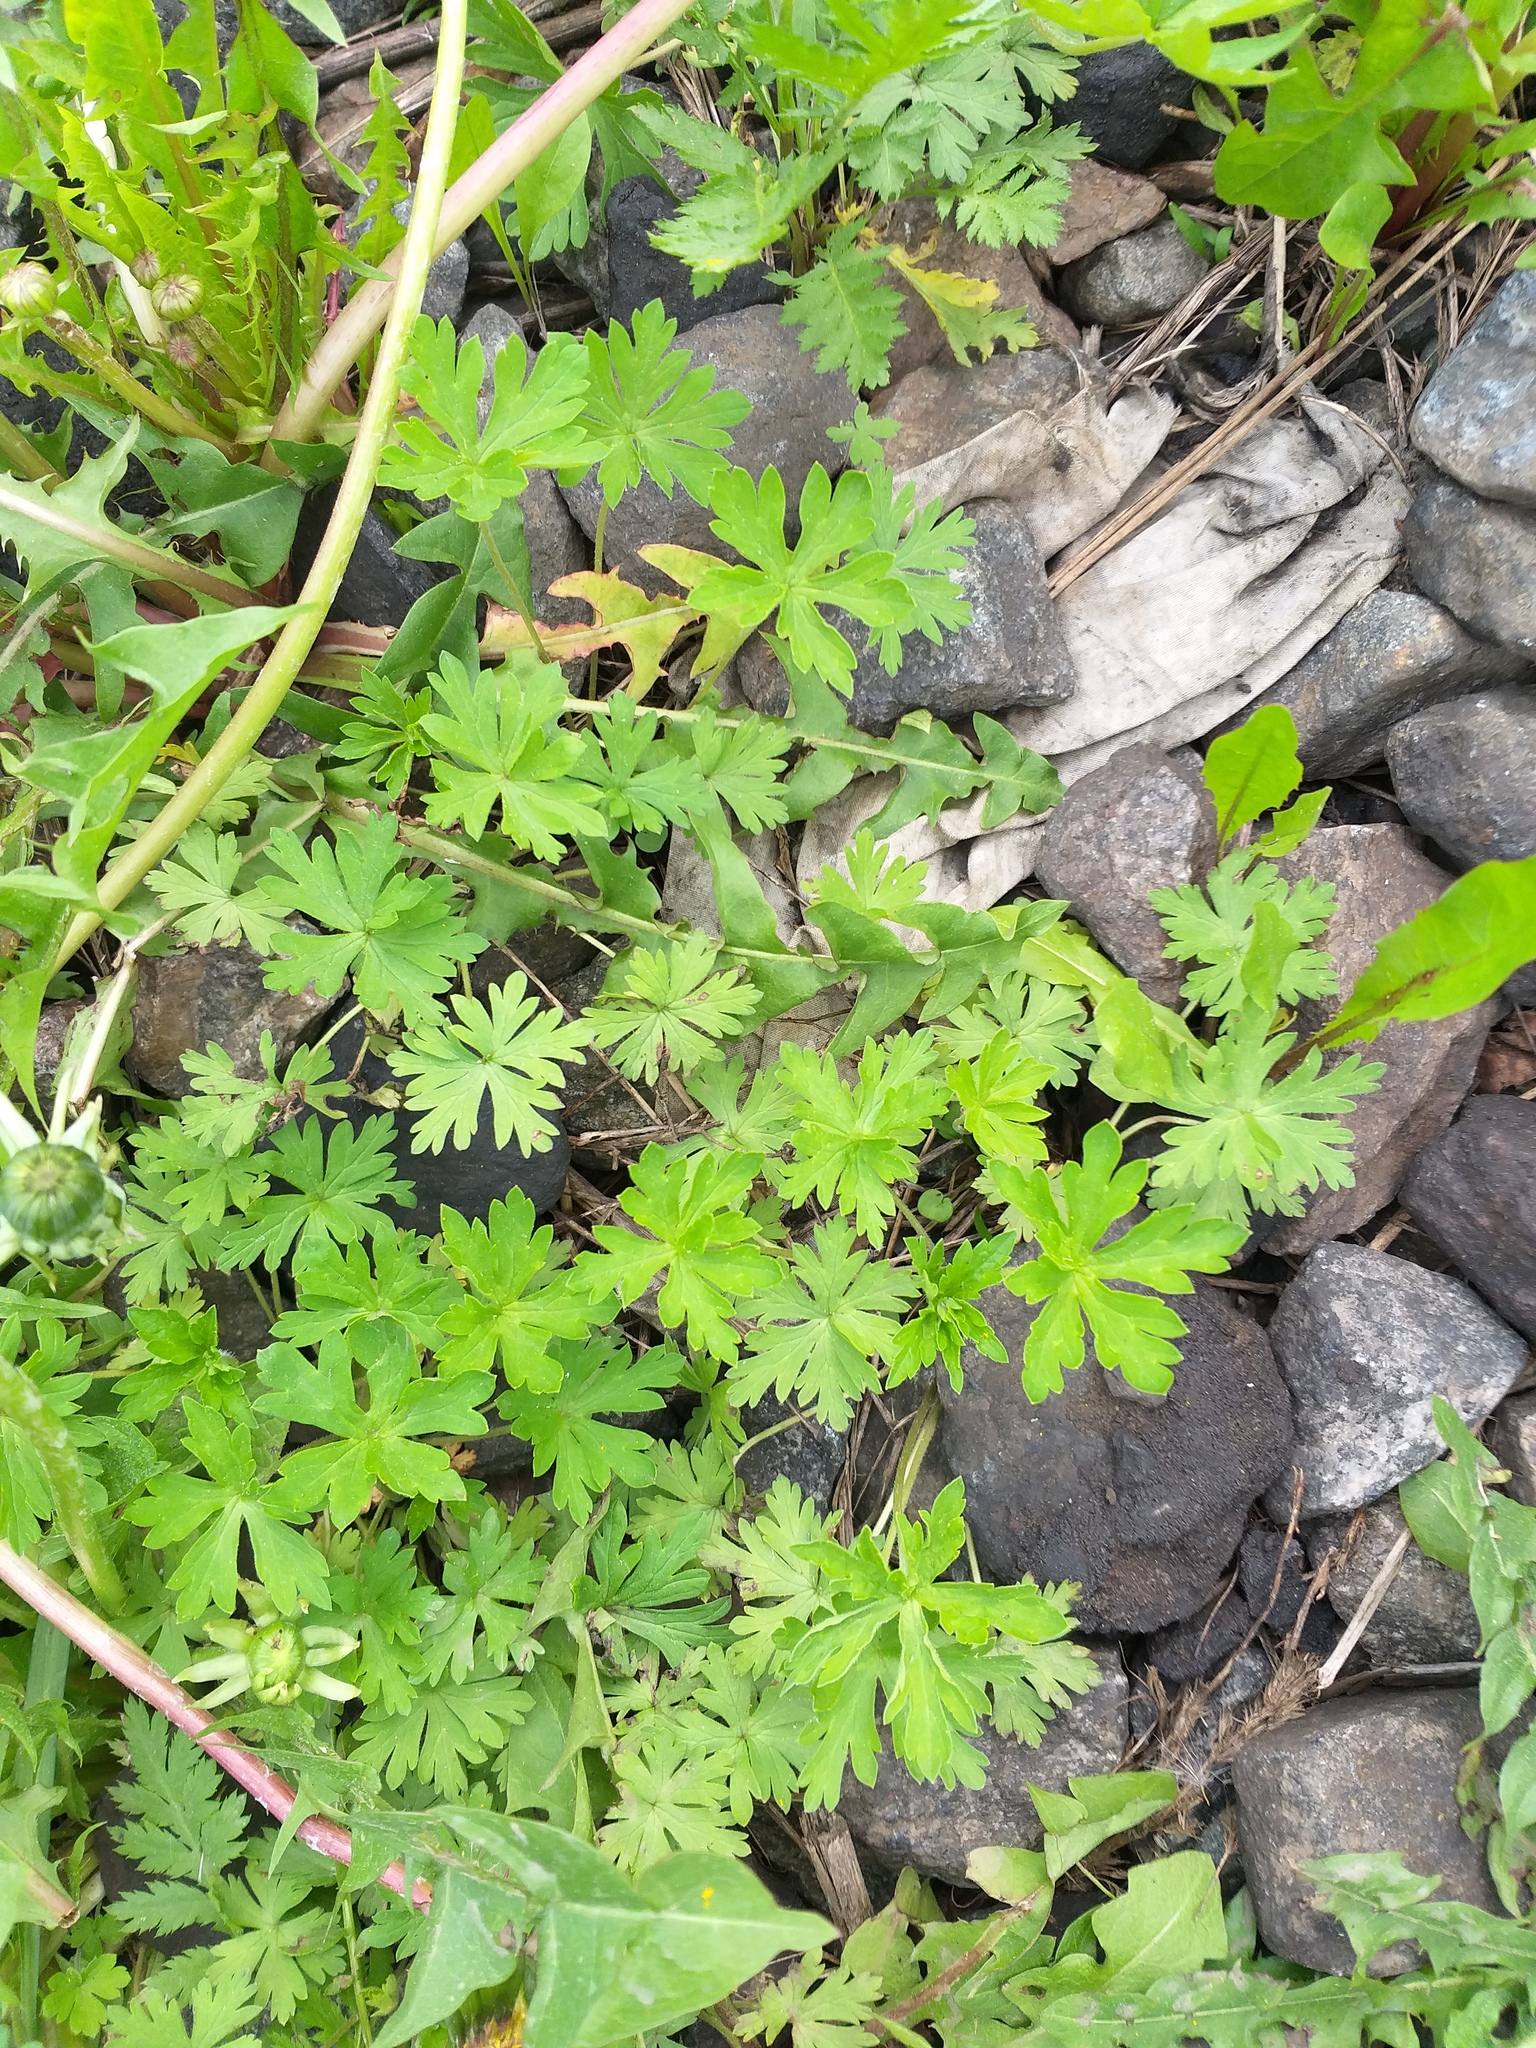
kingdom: Plantae
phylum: Tracheophyta
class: Magnoliopsida
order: Geraniales
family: Geraniaceae
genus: Geranium
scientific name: Geranium sibiricum
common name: Siberian crane's-bill
